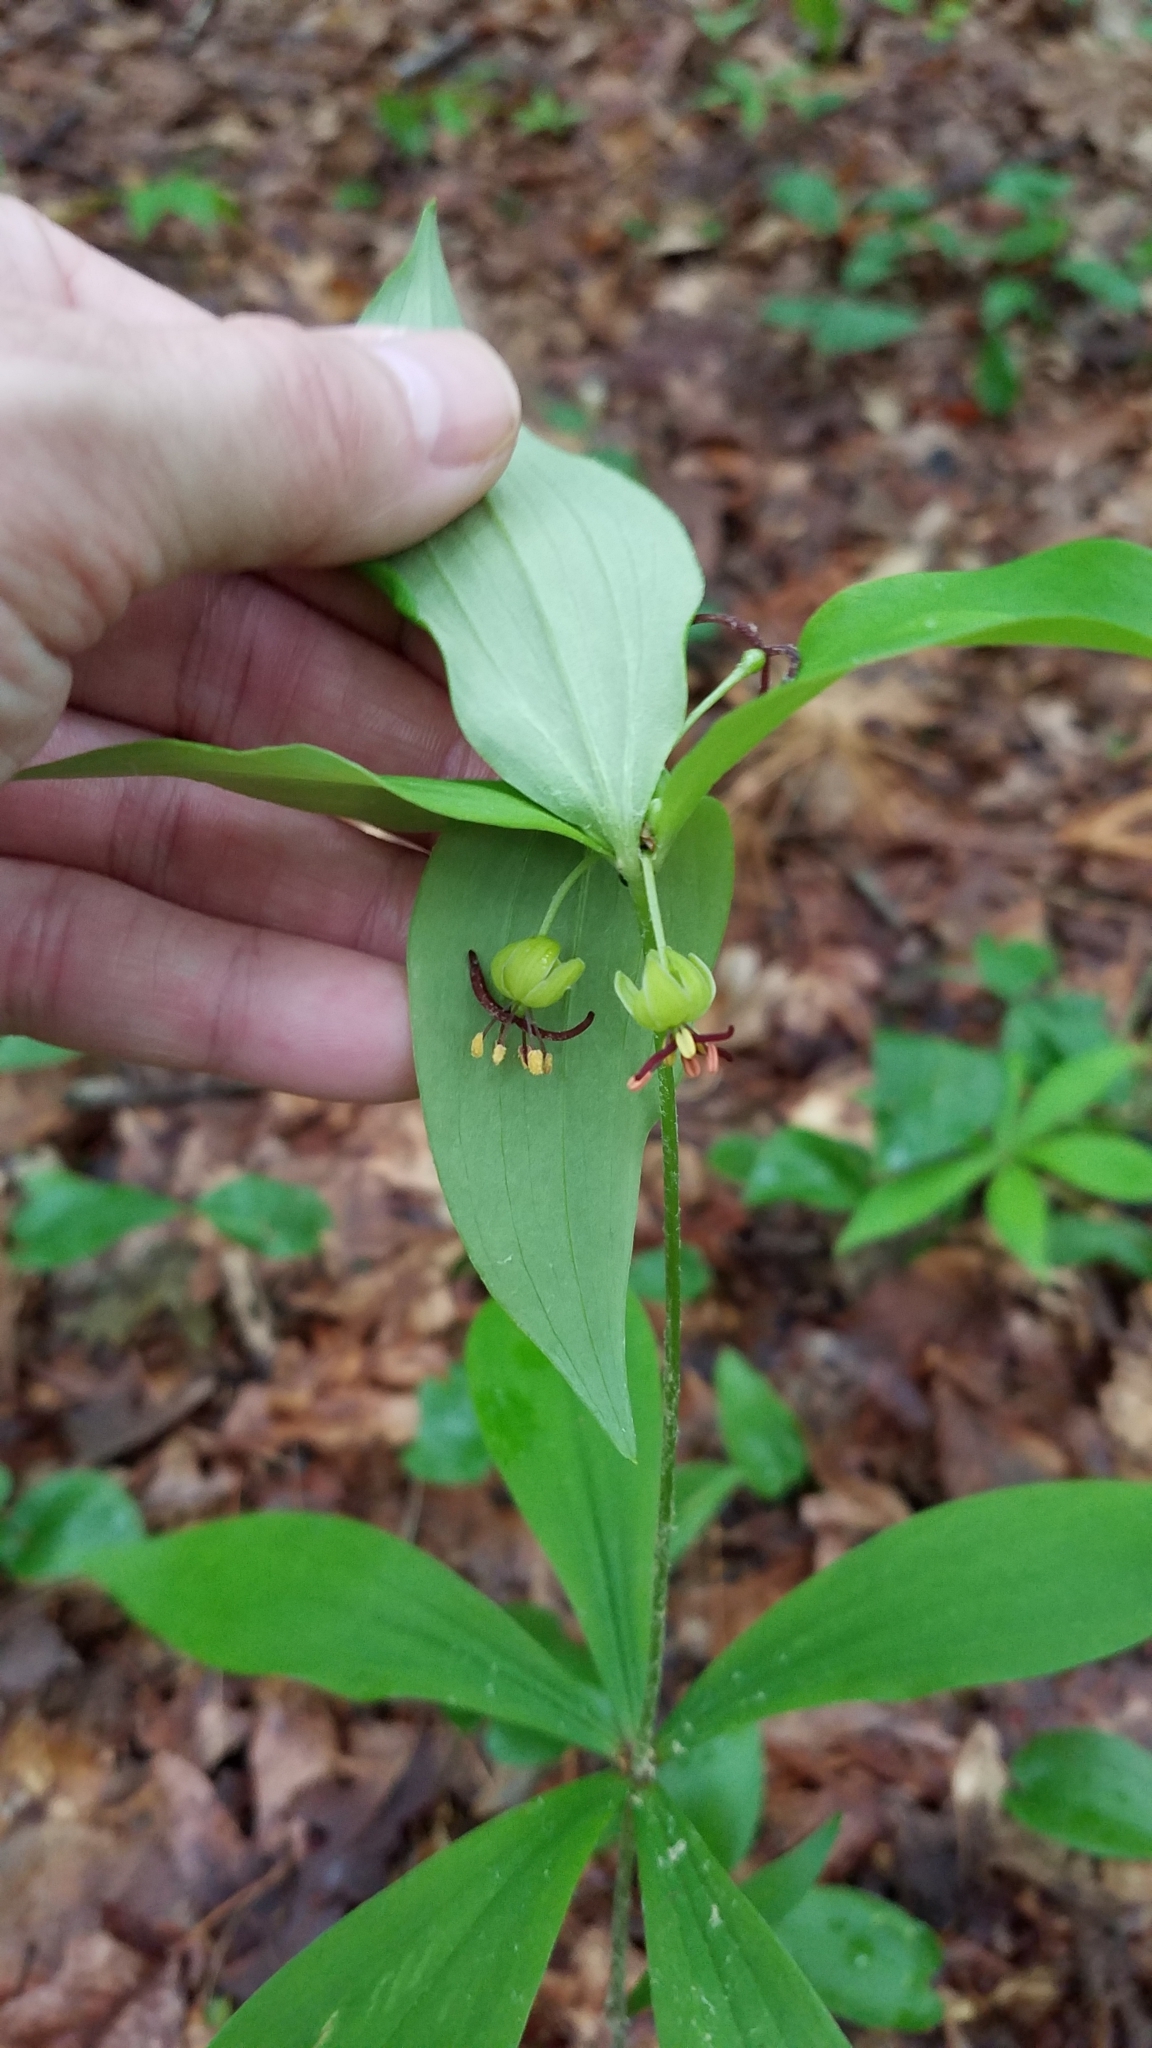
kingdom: Plantae
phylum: Tracheophyta
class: Liliopsida
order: Liliales
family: Liliaceae
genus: Medeola
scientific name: Medeola virginiana
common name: Indian cucumber-root
